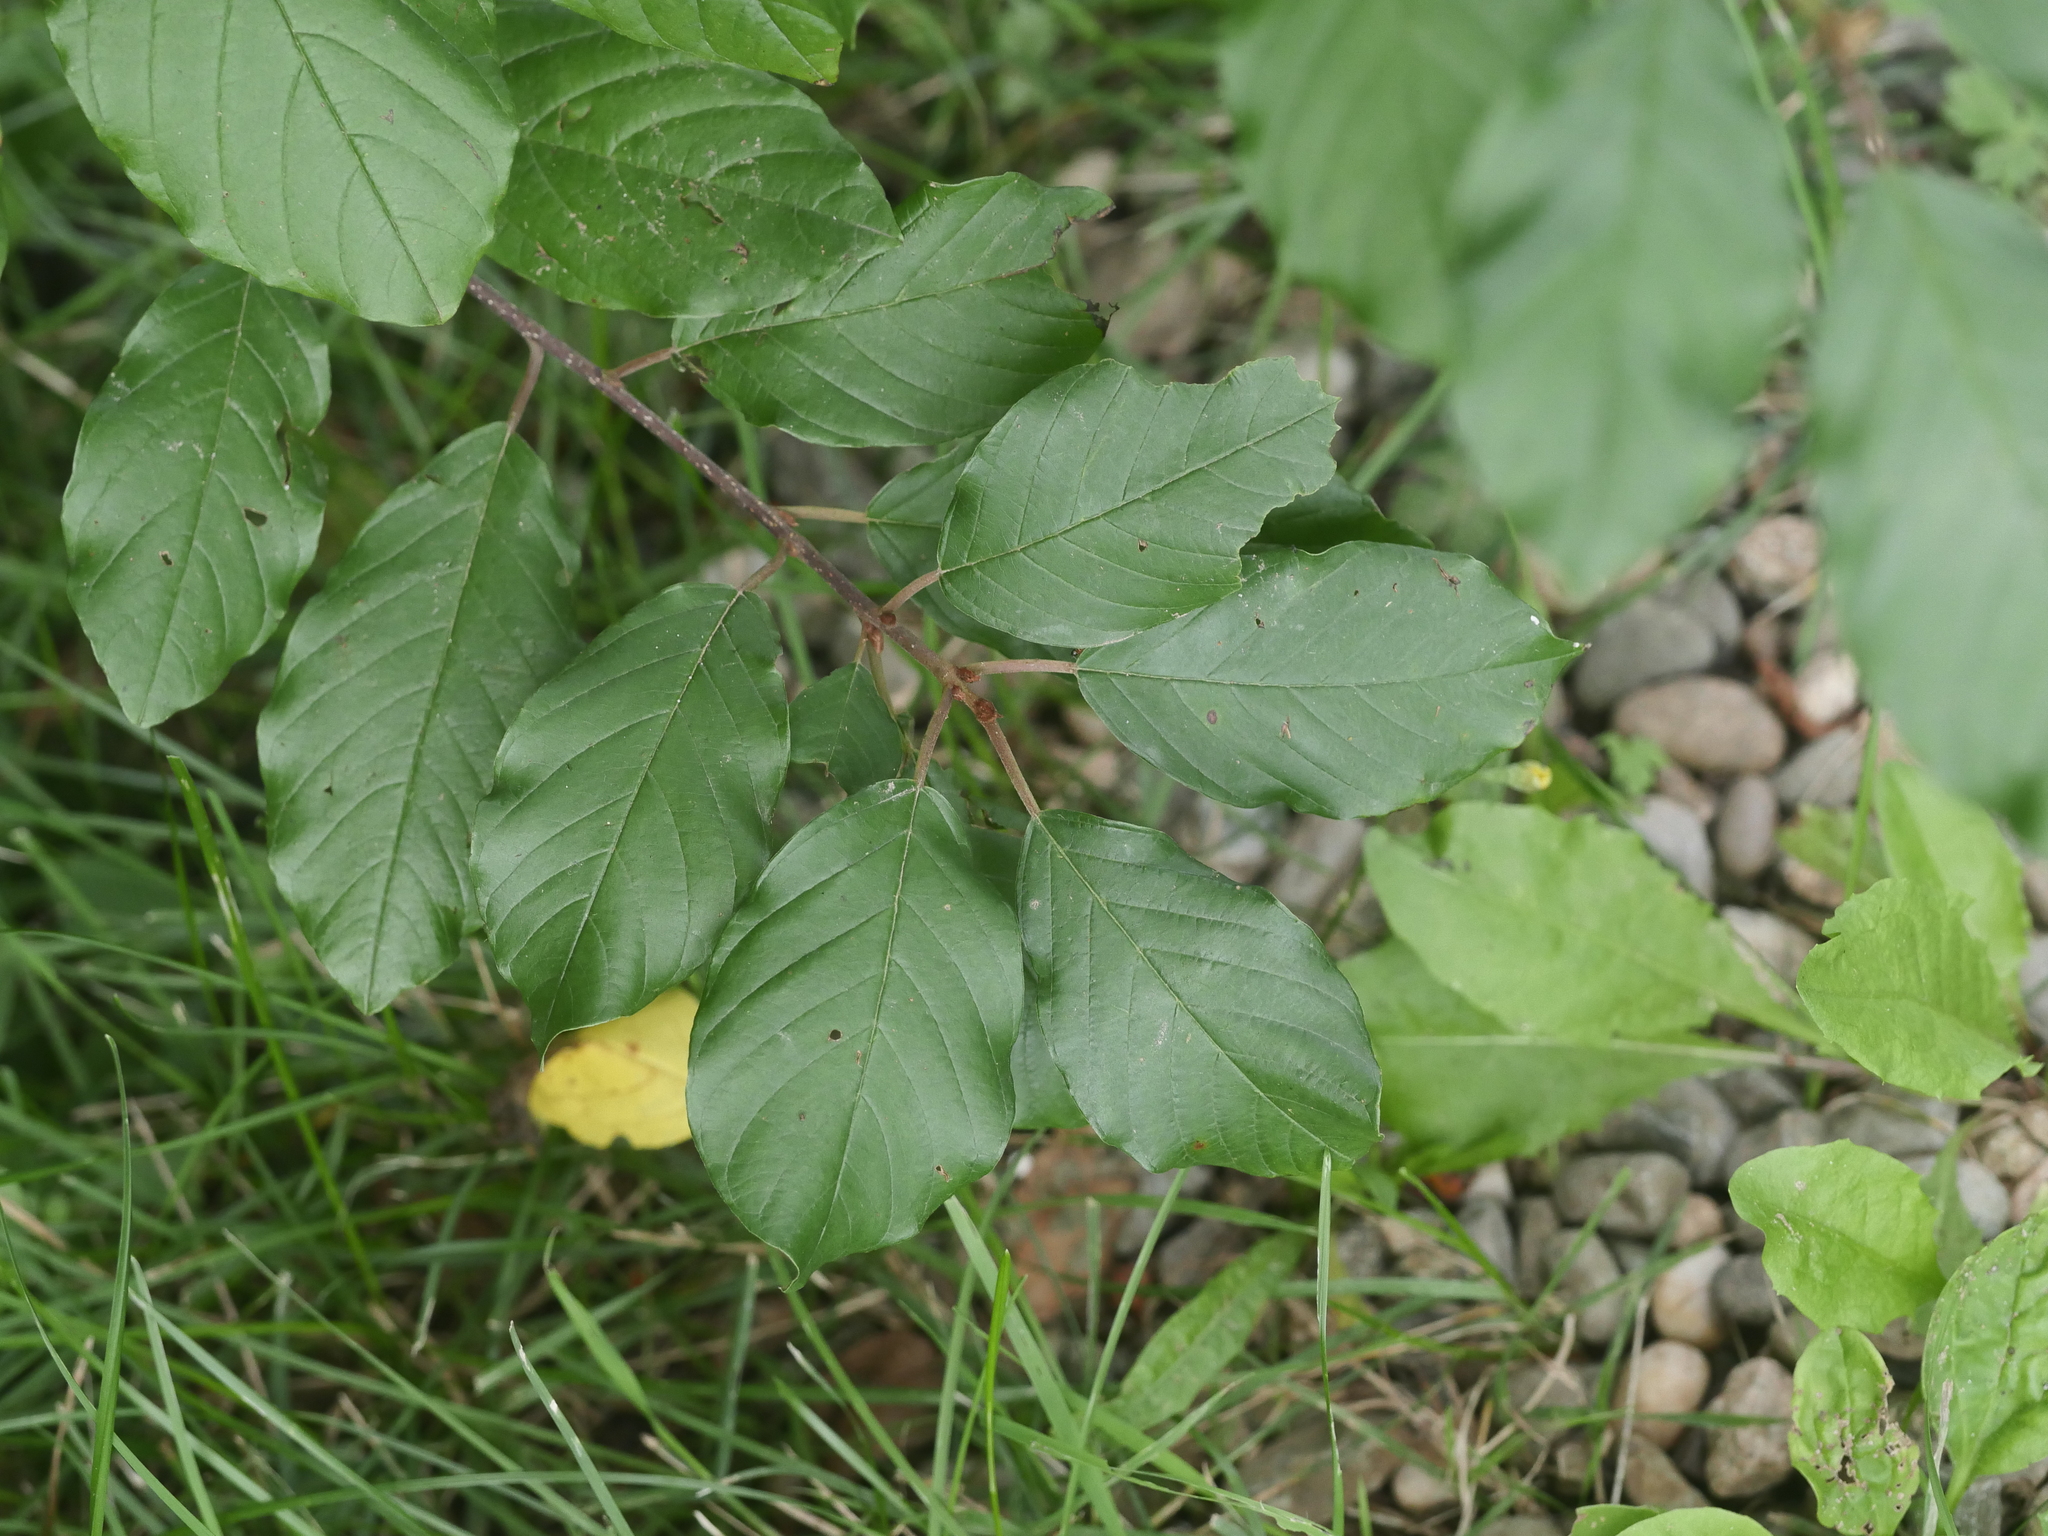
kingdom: Plantae
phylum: Tracheophyta
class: Magnoliopsida
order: Rosales
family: Rhamnaceae
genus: Frangula
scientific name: Frangula alnus
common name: Alder buckthorn
